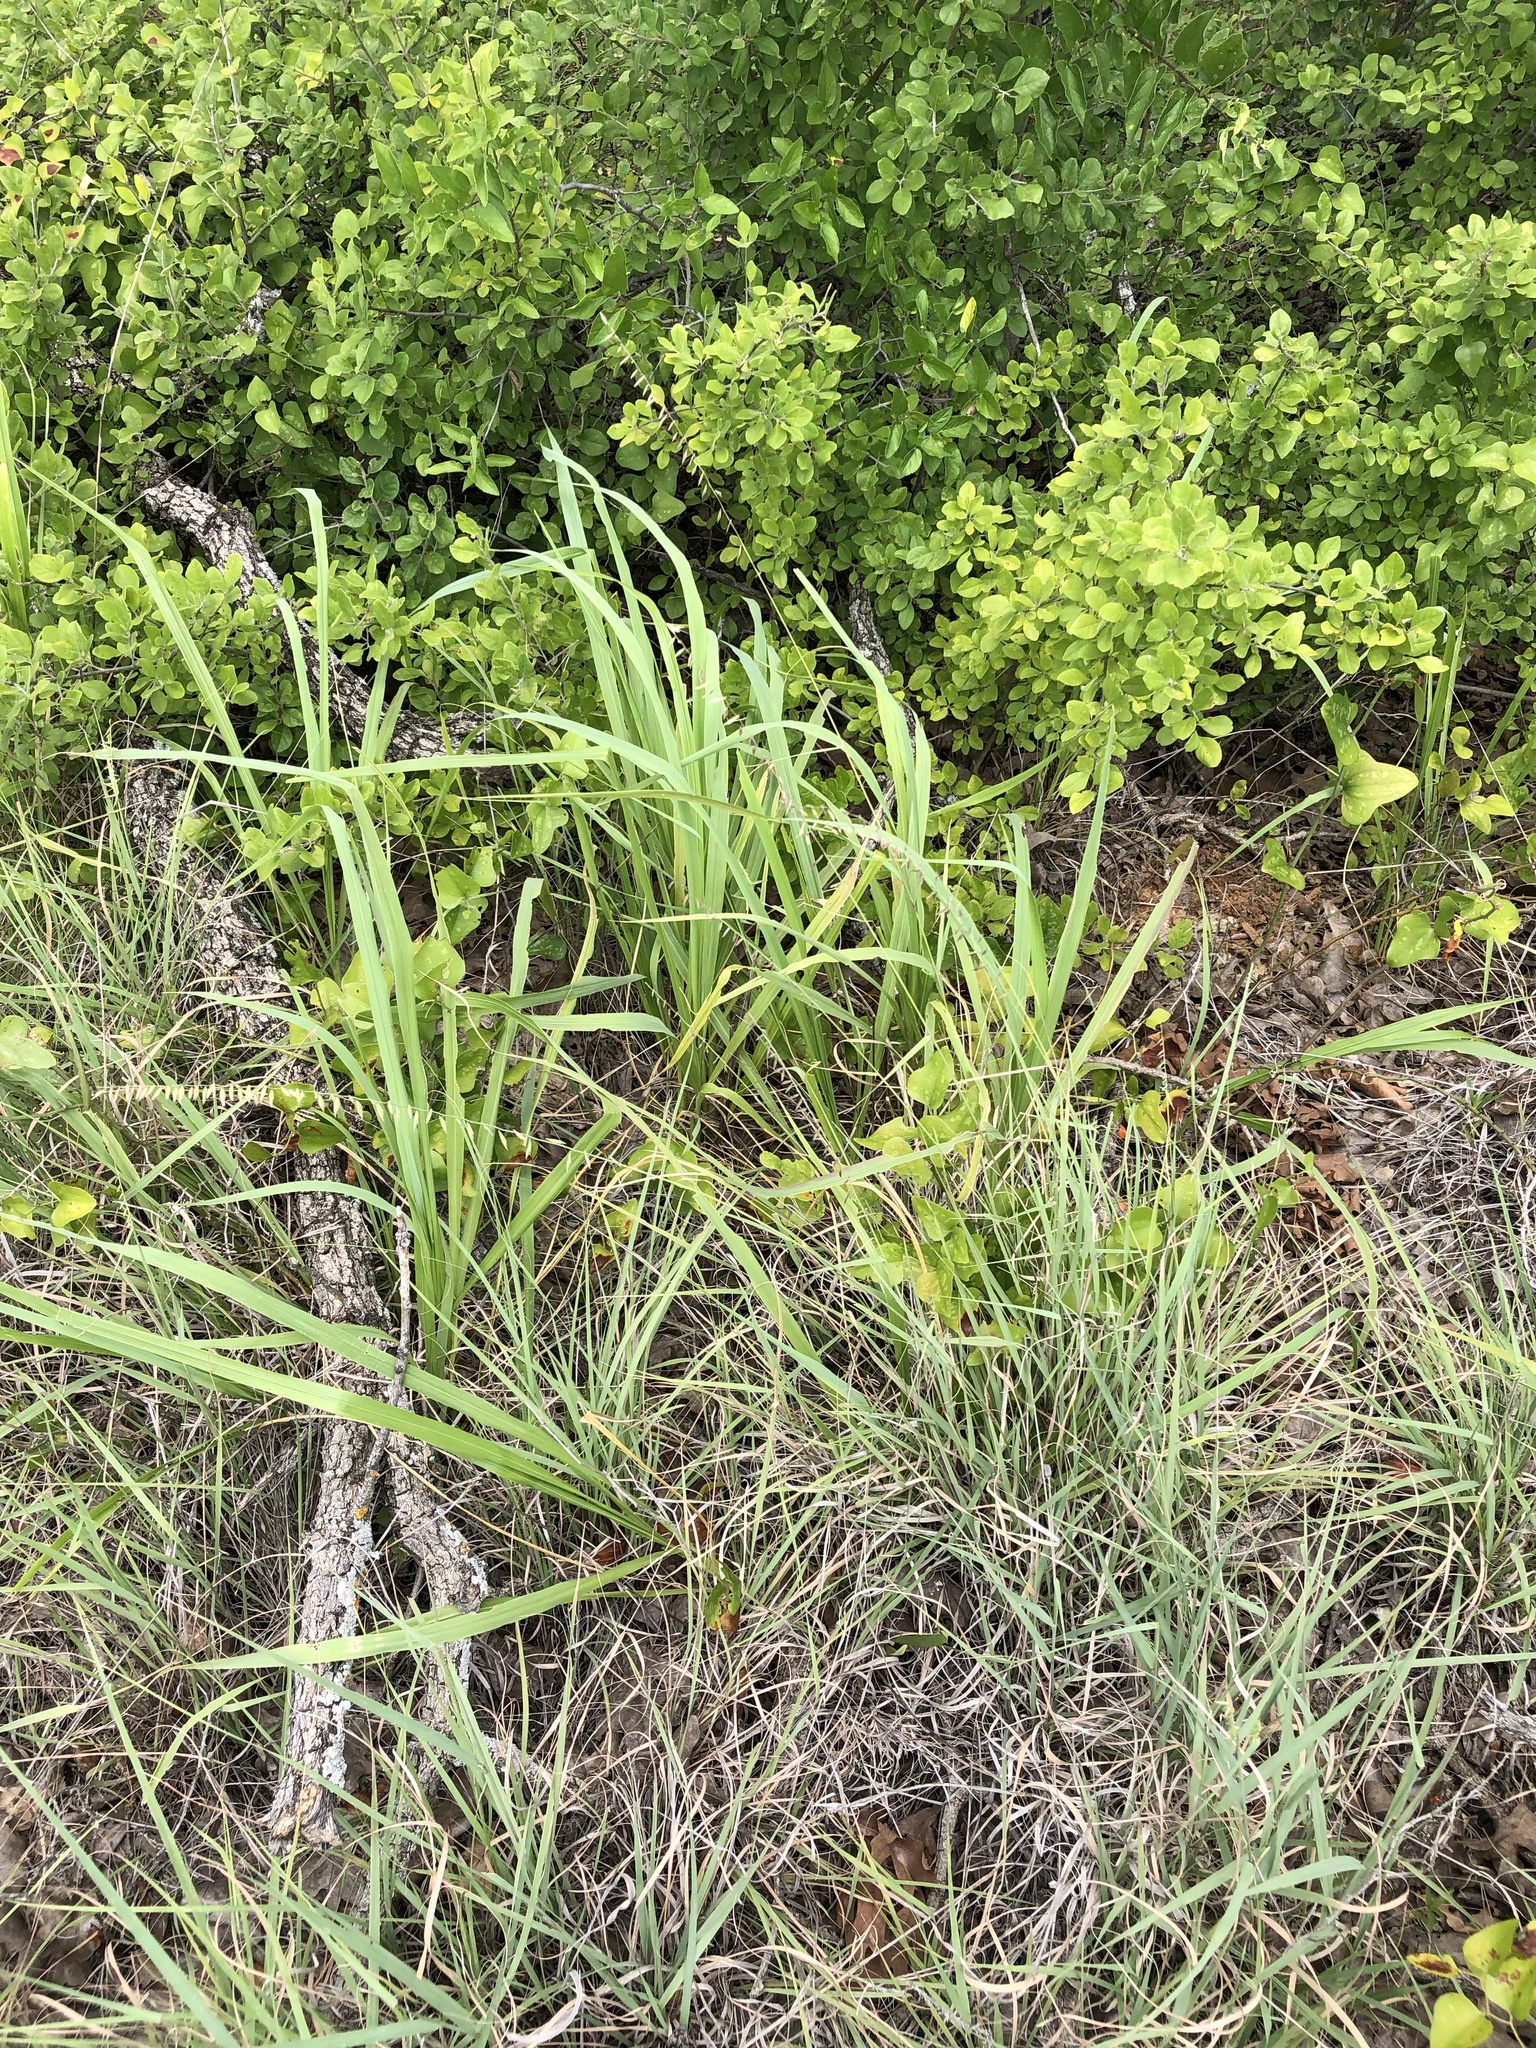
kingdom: Plantae
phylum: Tracheophyta
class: Liliopsida
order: Poales
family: Poaceae
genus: Bouteloua
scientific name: Bouteloua curtipendula
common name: Side-oats grama
